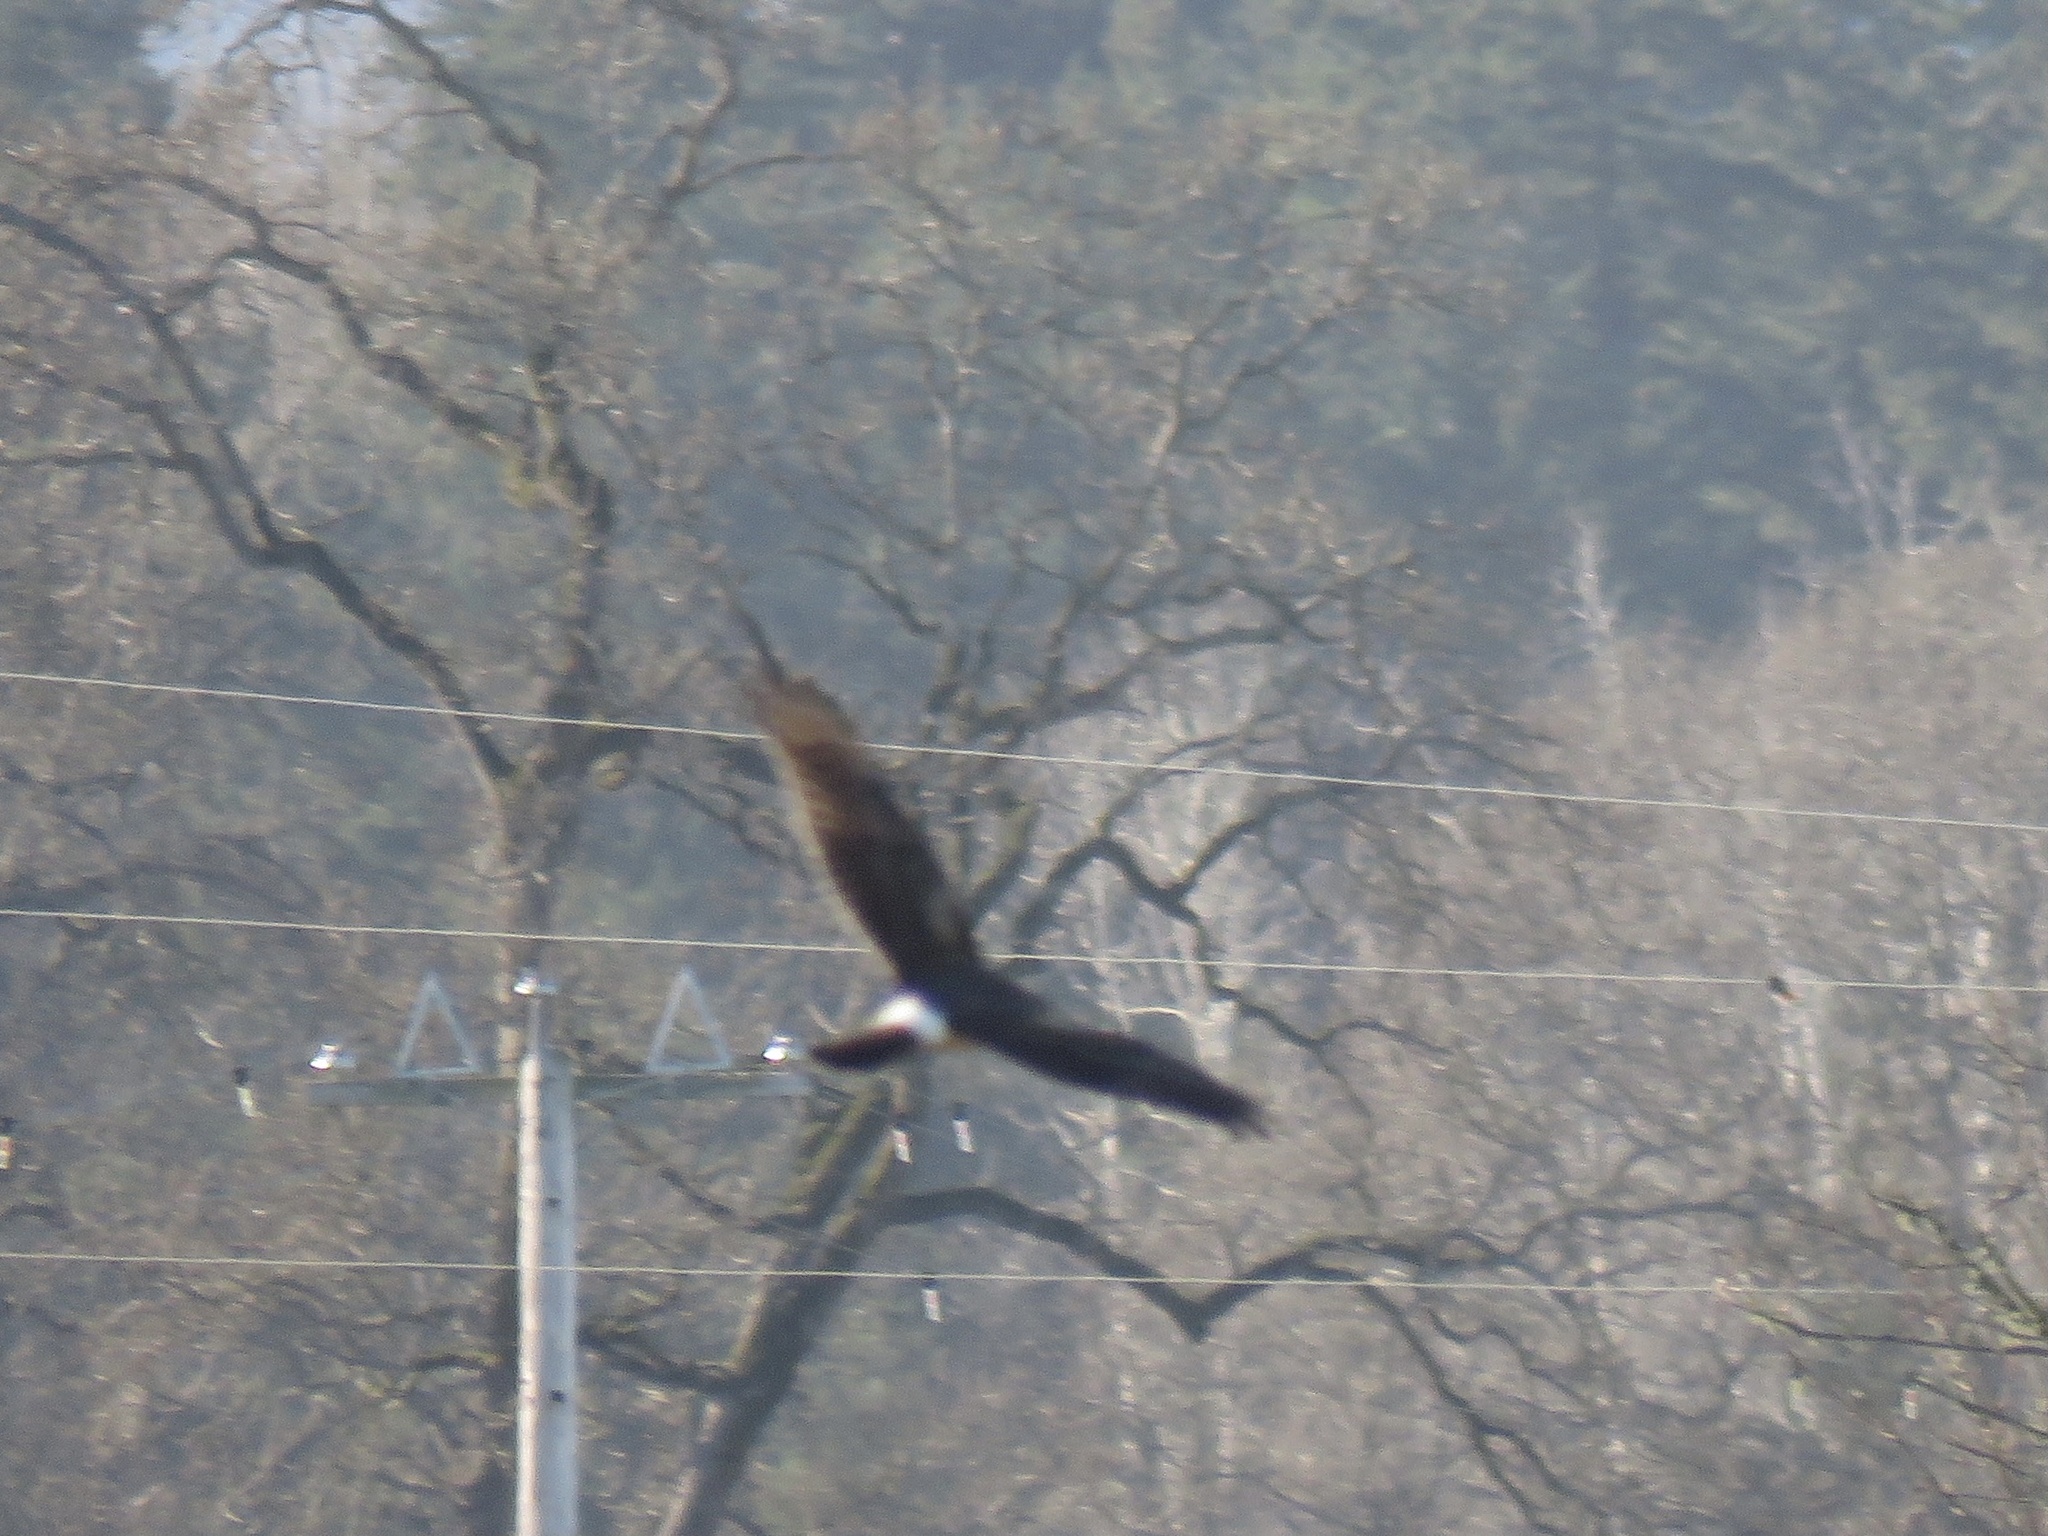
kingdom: Animalia
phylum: Chordata
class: Aves
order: Accipitriformes
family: Accipitridae
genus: Circus
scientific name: Circus cyaneus
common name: Hen harrier
